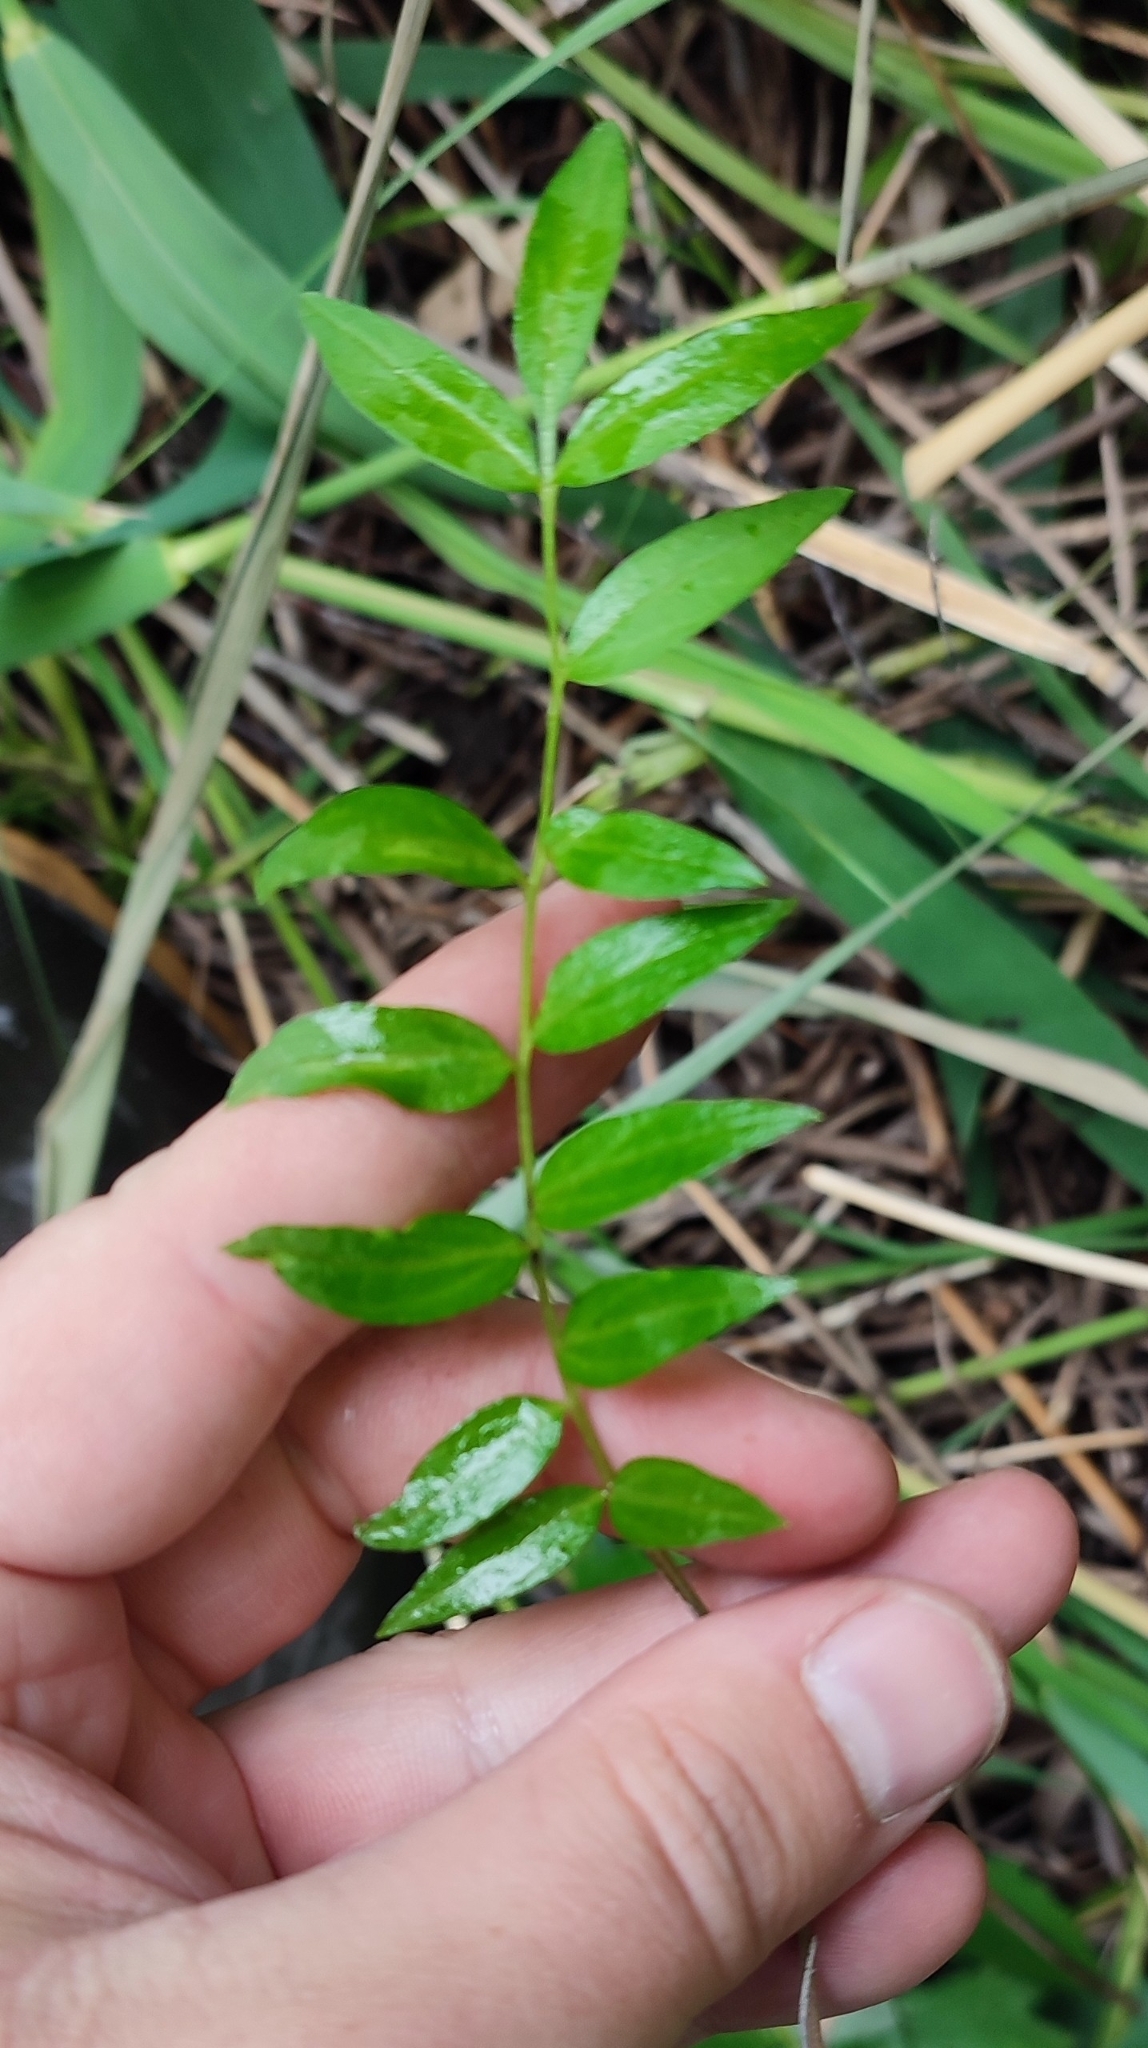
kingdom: Plantae
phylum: Tracheophyta
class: Magnoliopsida
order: Ericales
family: Polemoniaceae
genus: Polemonium
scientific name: Polemonium caeruleum
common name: Jacob's-ladder
